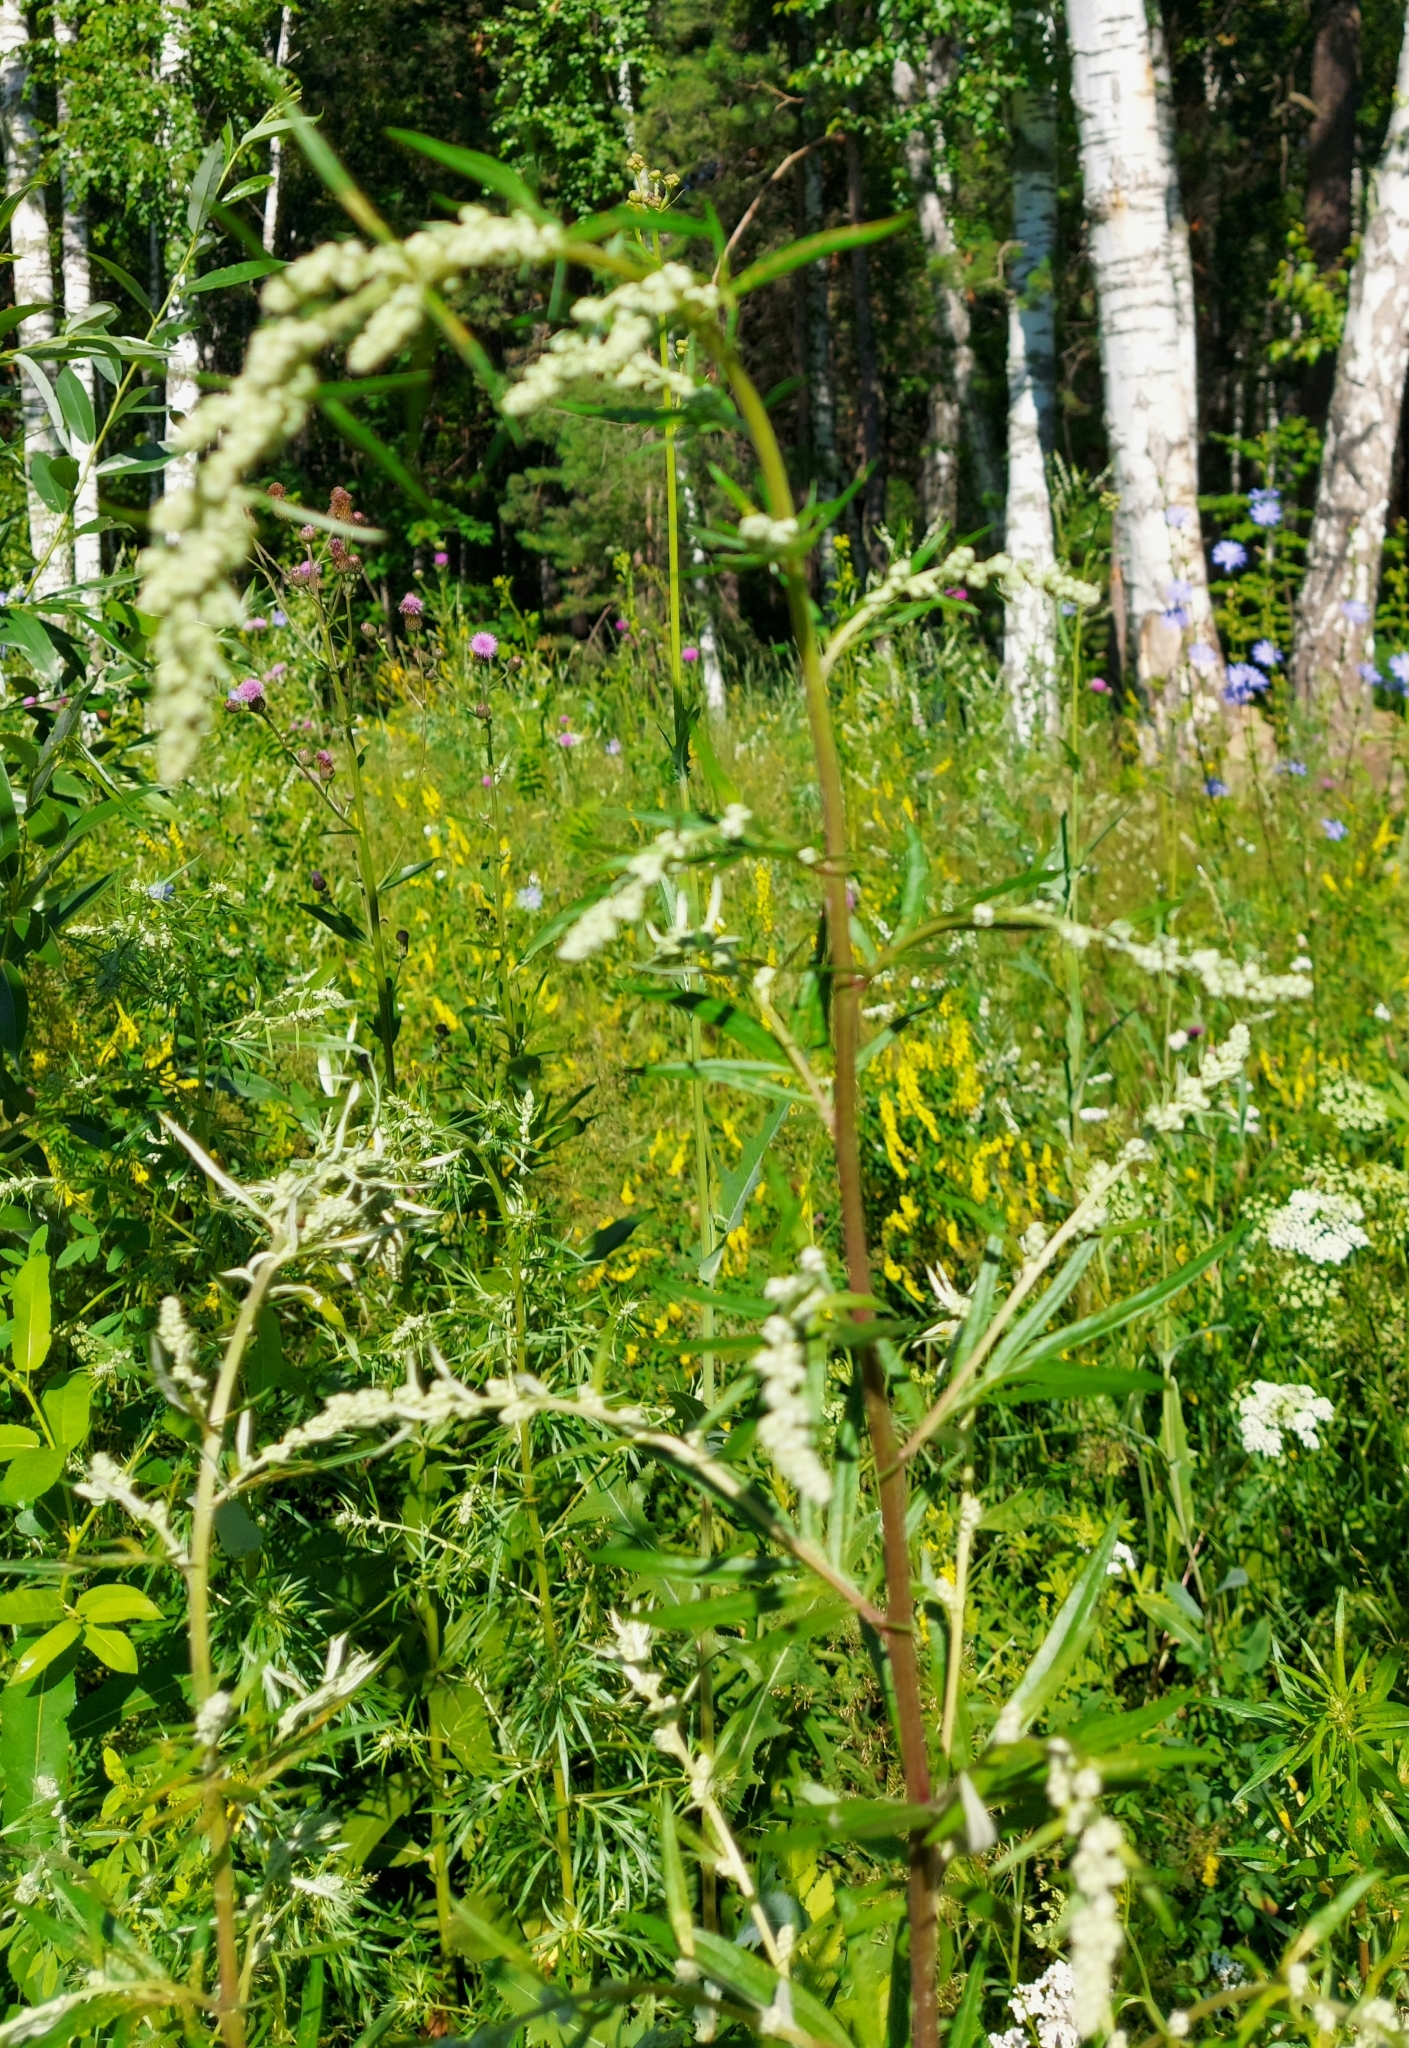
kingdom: Plantae
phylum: Tracheophyta
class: Magnoliopsida
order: Asterales
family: Asteraceae
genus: Artemisia
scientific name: Artemisia vulgaris
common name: Mugwort
